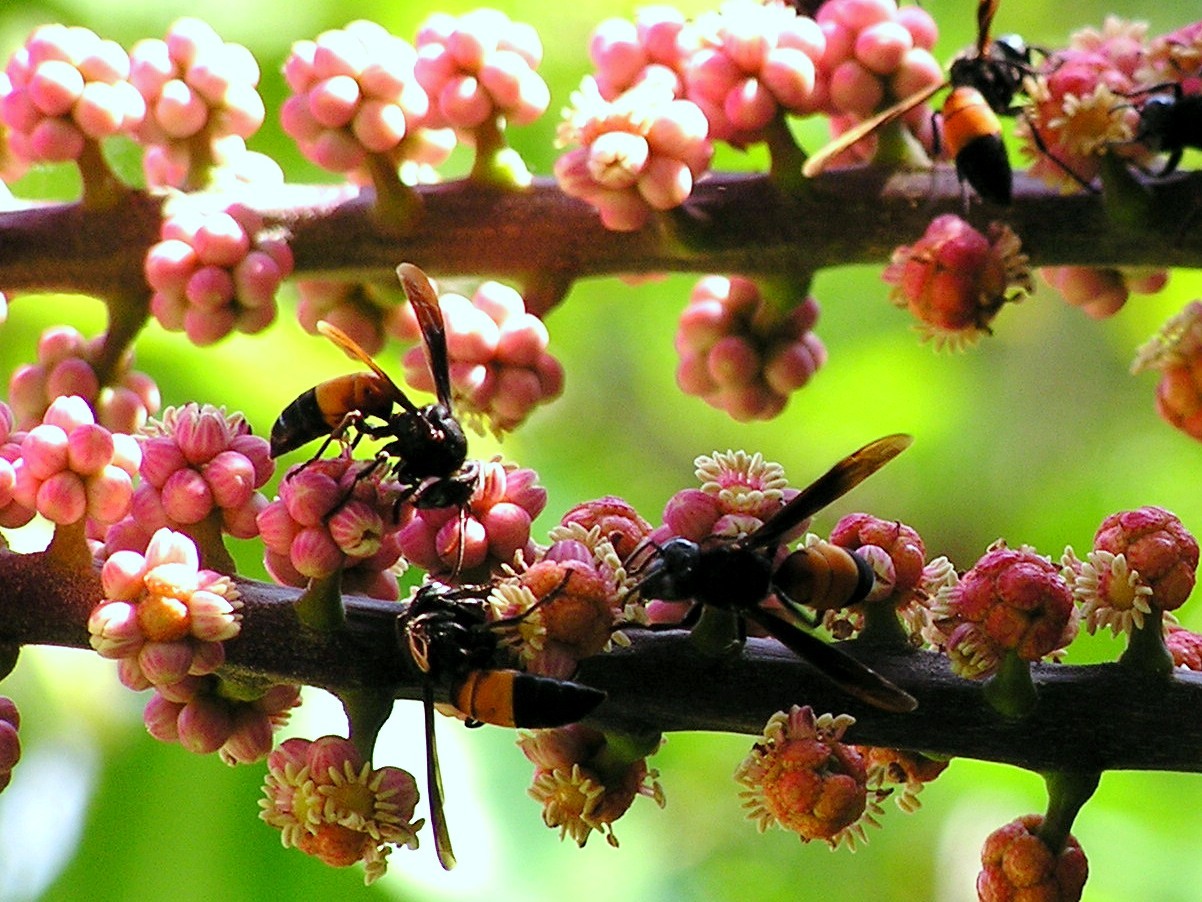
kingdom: Animalia
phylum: Arthropoda
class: Insecta
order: Hymenoptera
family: Vespidae
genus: Vespa
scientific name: Vespa affinis
